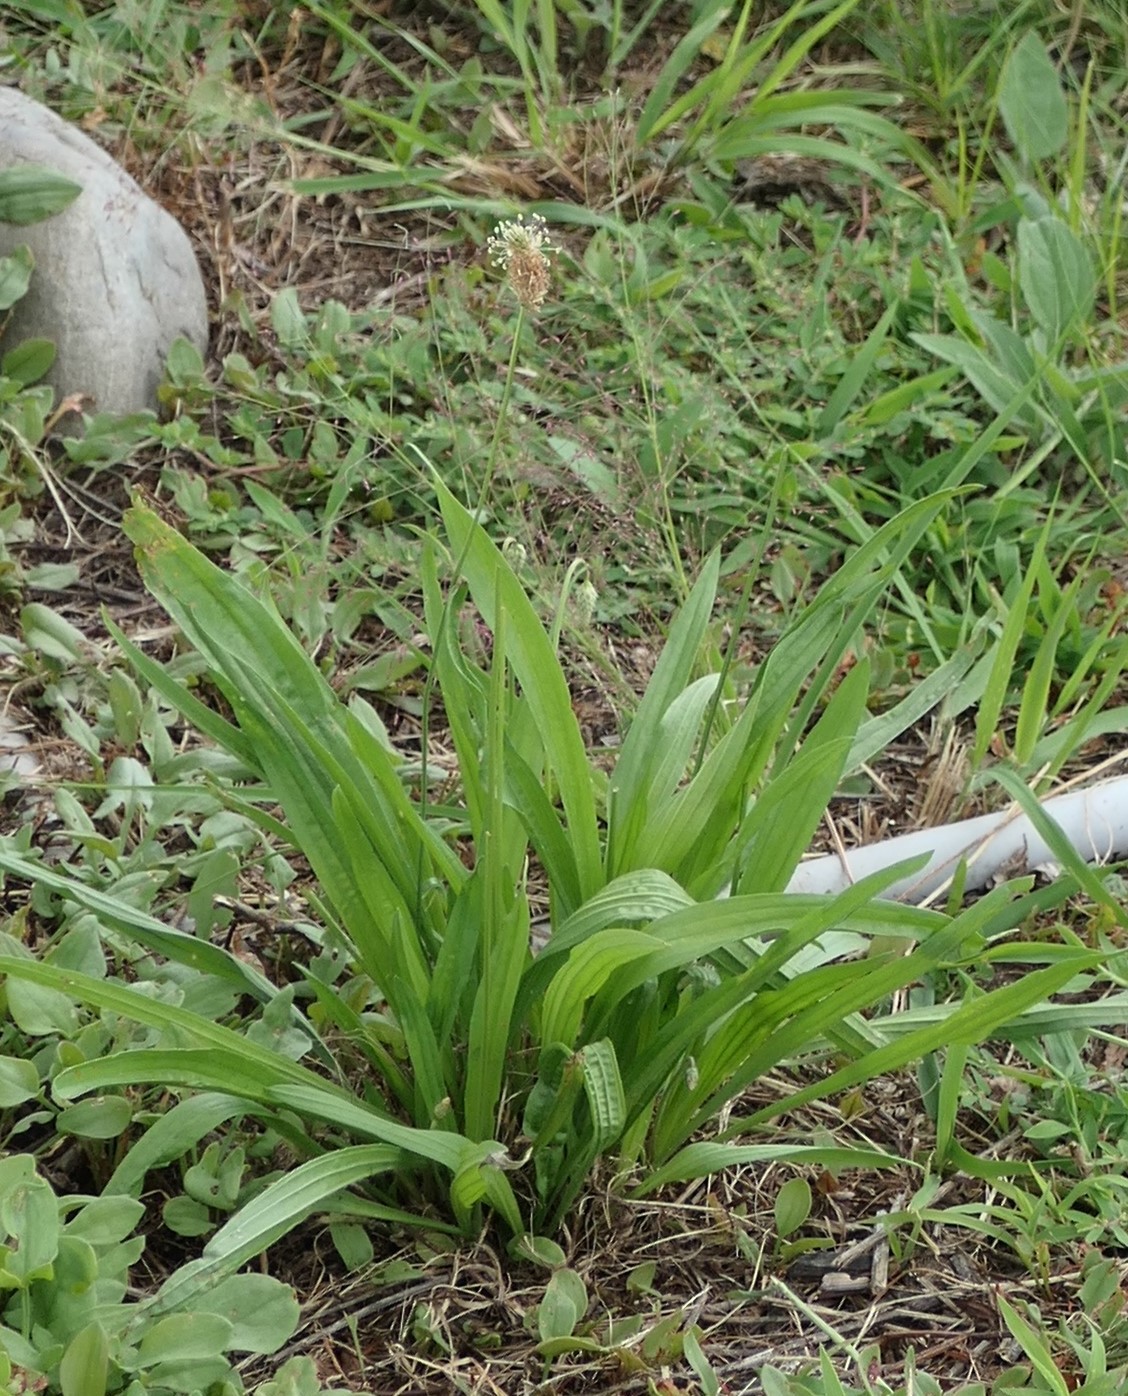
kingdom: Plantae
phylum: Tracheophyta
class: Magnoliopsida
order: Lamiales
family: Plantaginaceae
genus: Plantago
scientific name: Plantago lanceolata
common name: Ribwort plantain
